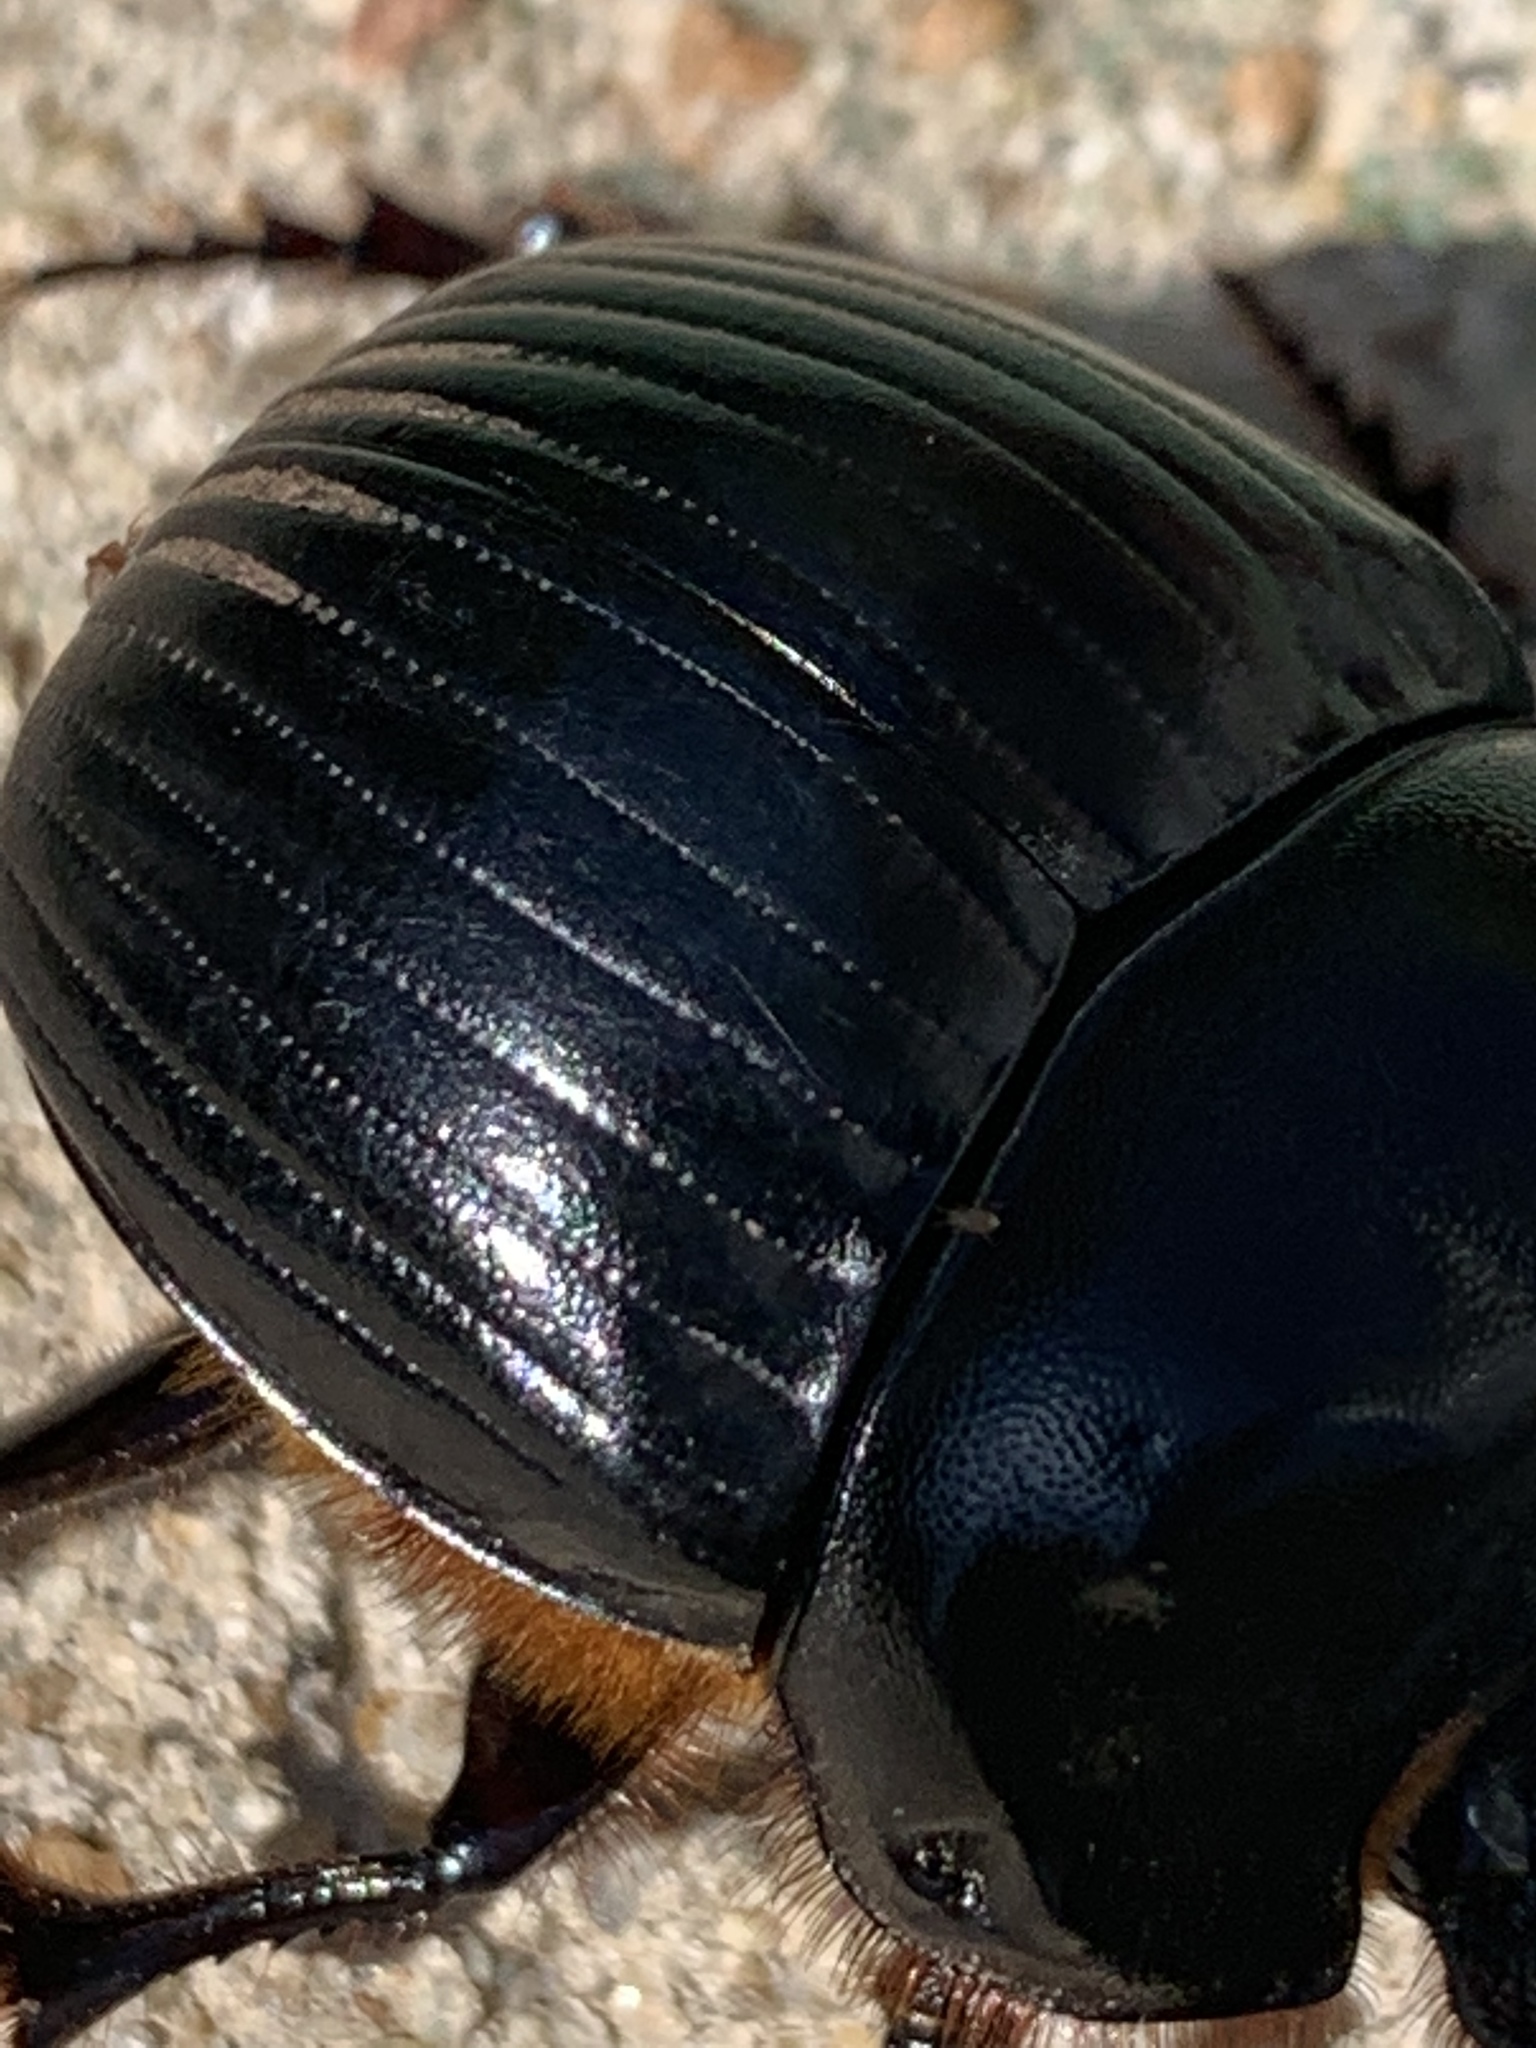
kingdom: Animalia
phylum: Arthropoda
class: Insecta
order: Coleoptera
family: Scarabaeidae
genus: Dichotomius
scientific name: Dichotomius carolinus
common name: Carolina copris
